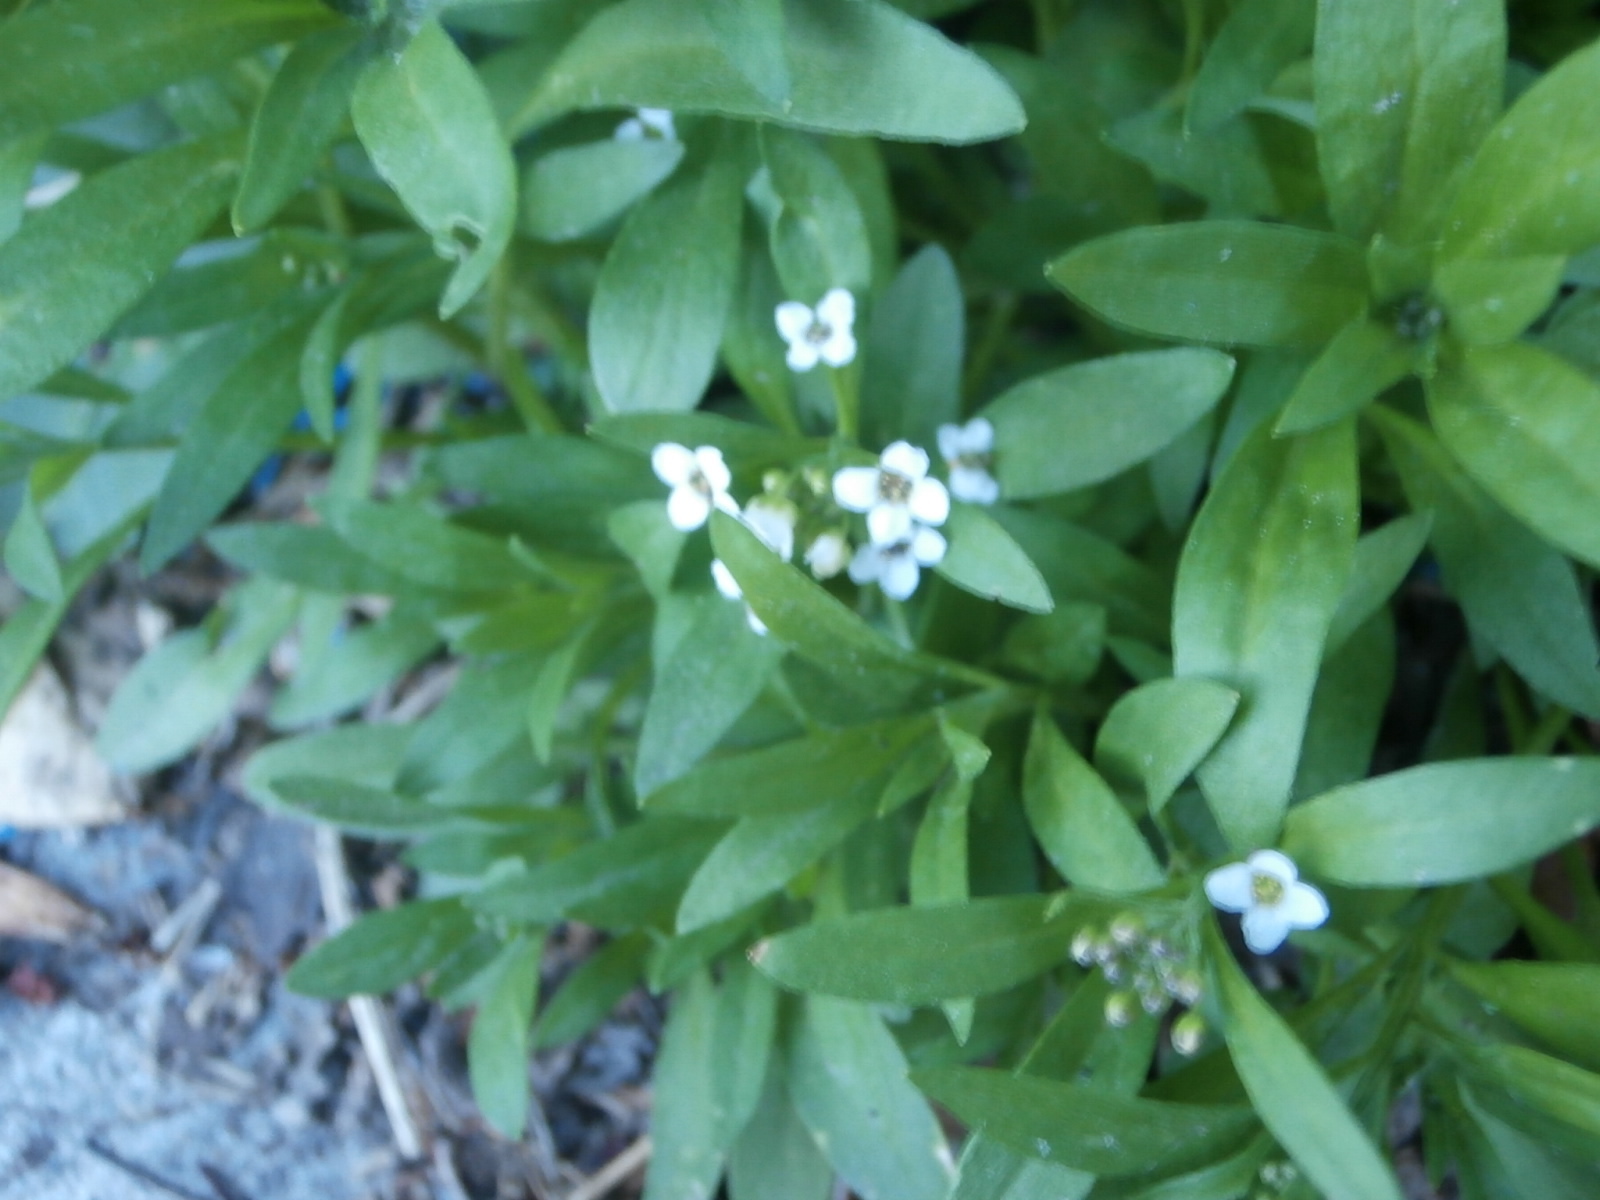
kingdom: Plantae
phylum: Tracheophyta
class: Magnoliopsida
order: Brassicales
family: Brassicaceae
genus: Lobularia
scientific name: Lobularia maritima
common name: Sweet alison
